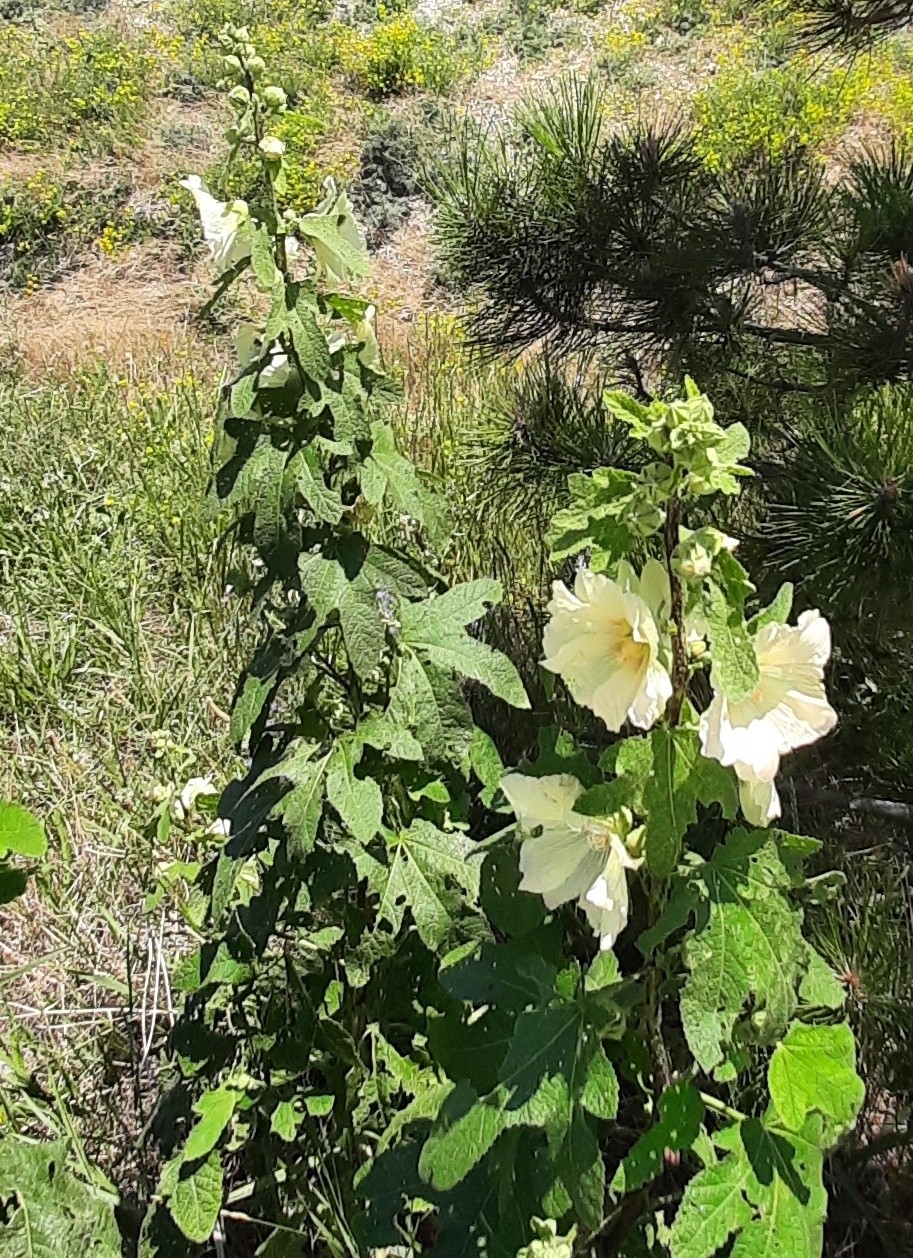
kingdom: Plantae
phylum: Tracheophyta
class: Magnoliopsida
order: Malvales
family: Malvaceae
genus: Alcea
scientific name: Alcea rugosa
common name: Russian hollyhock
